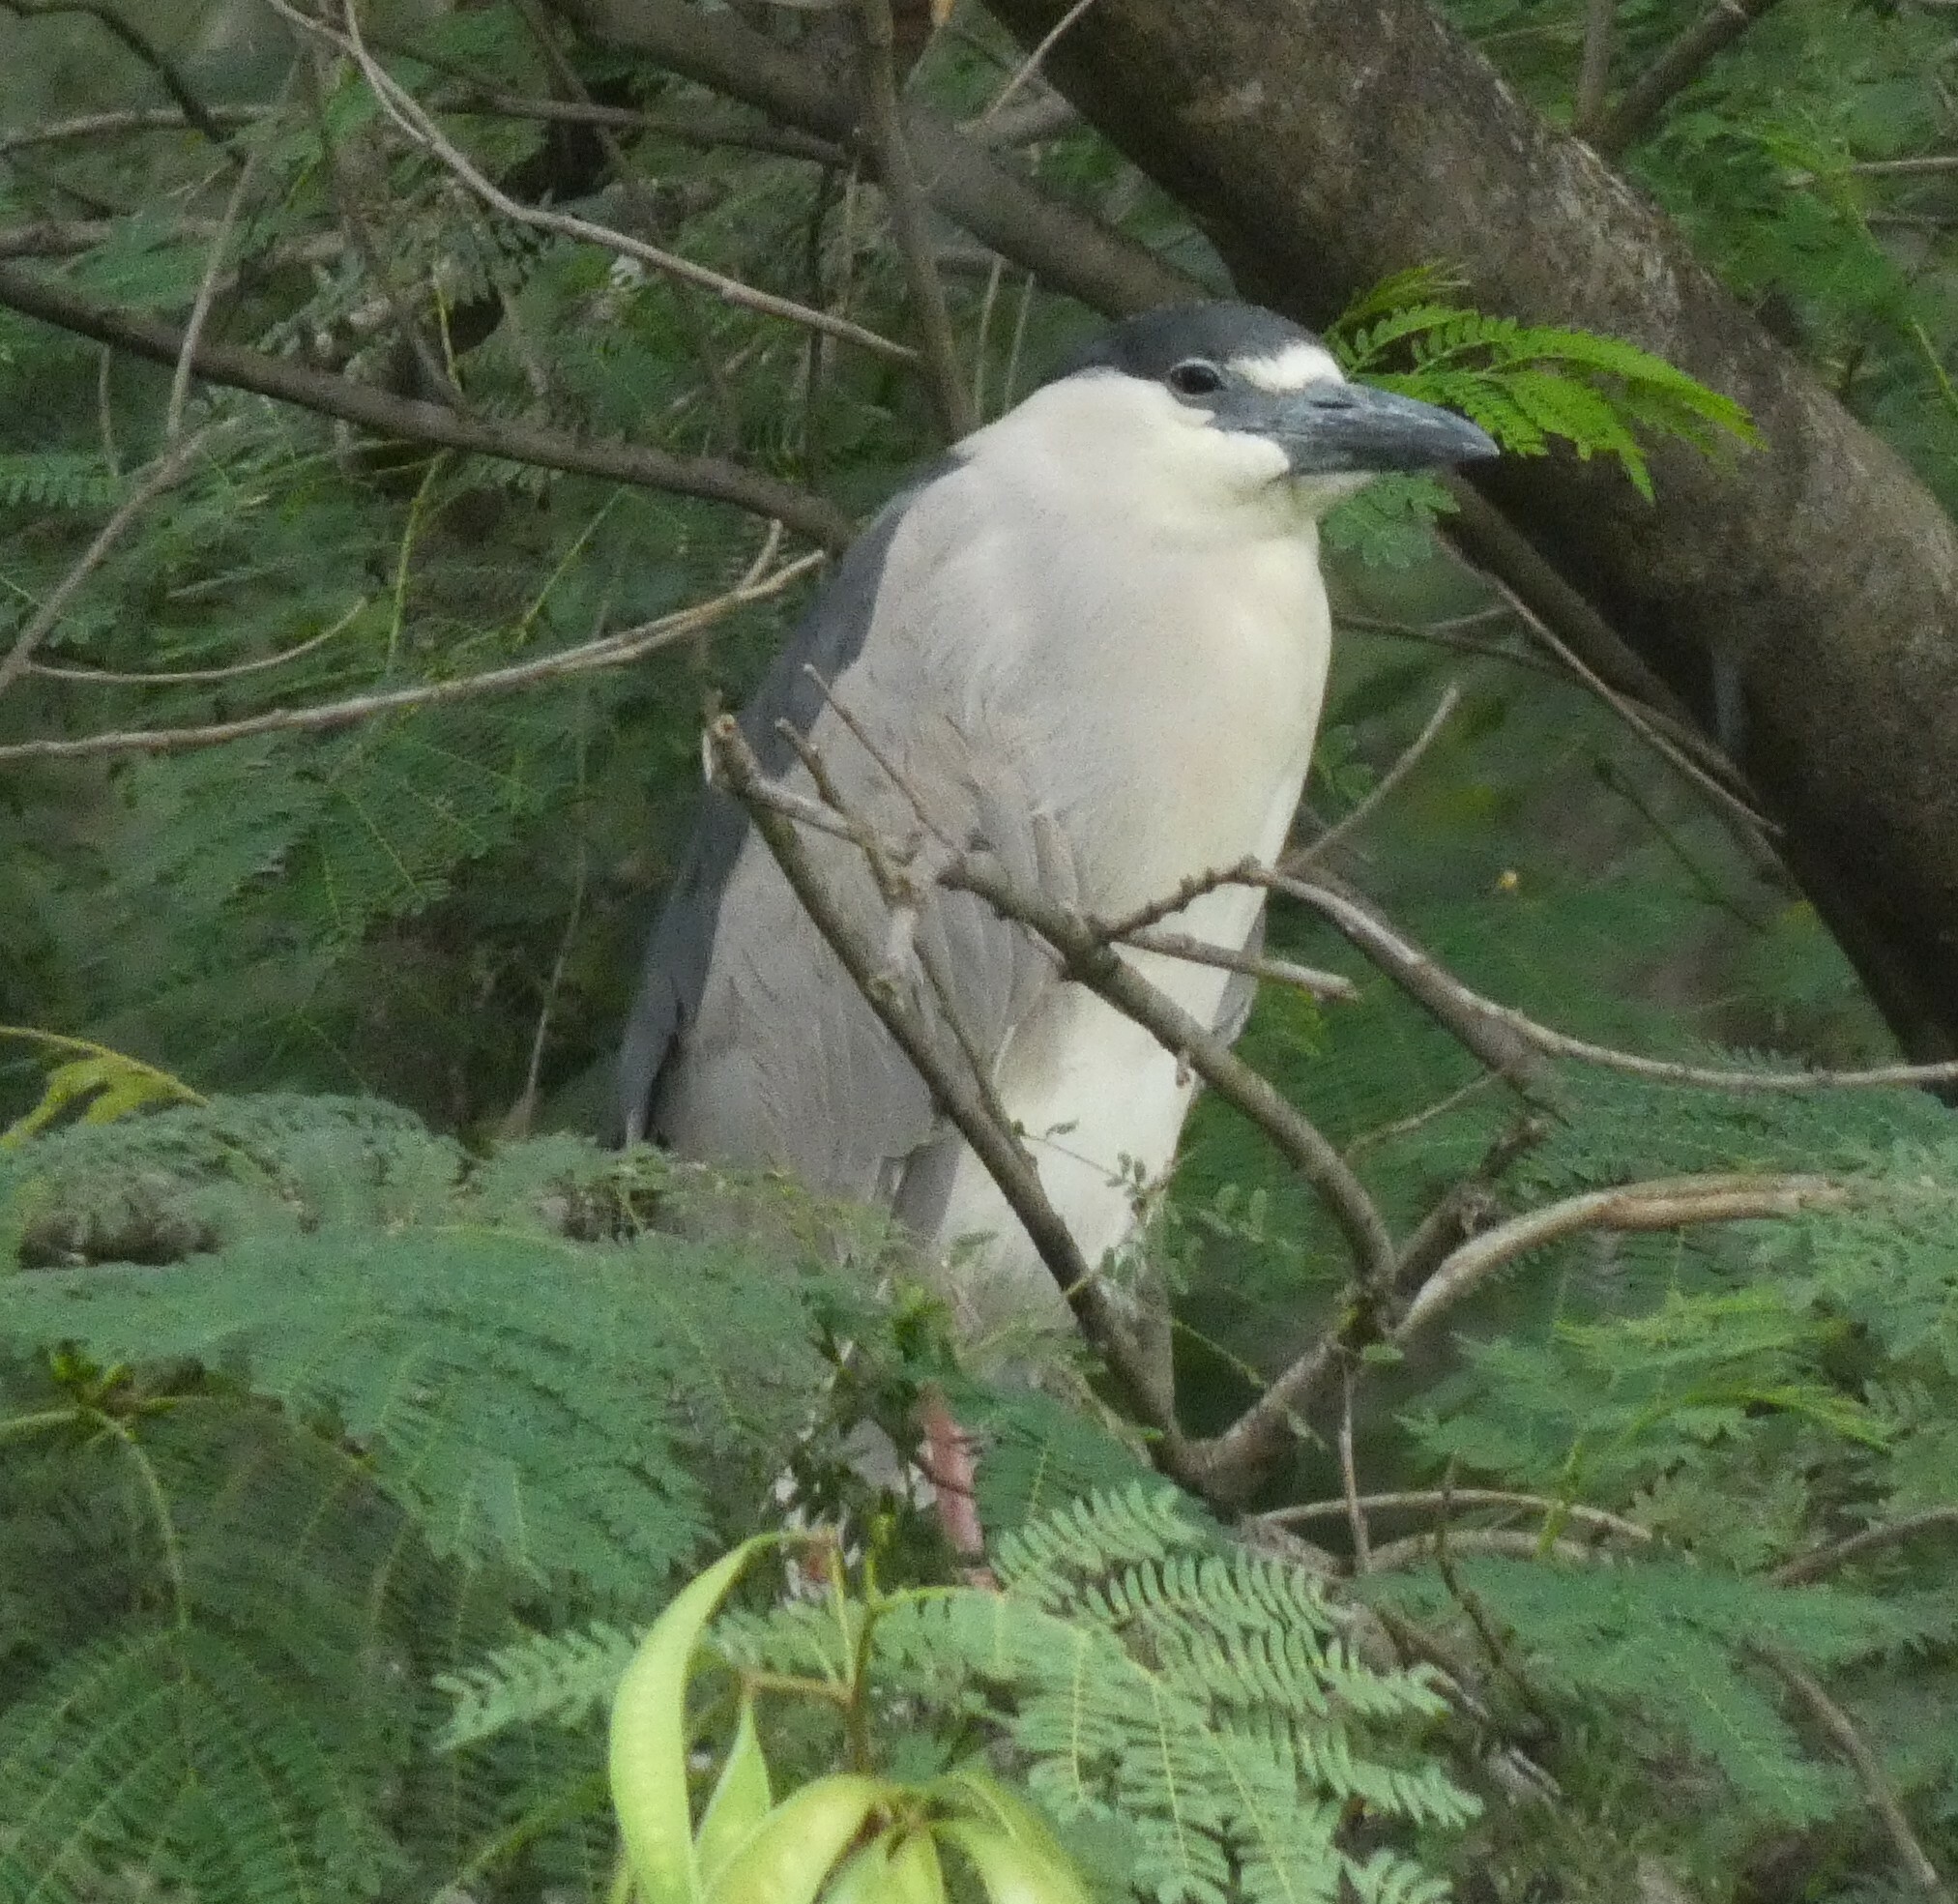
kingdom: Animalia
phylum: Chordata
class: Aves
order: Pelecaniformes
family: Ardeidae
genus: Nycticorax
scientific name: Nycticorax nycticorax
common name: Black-crowned night heron
